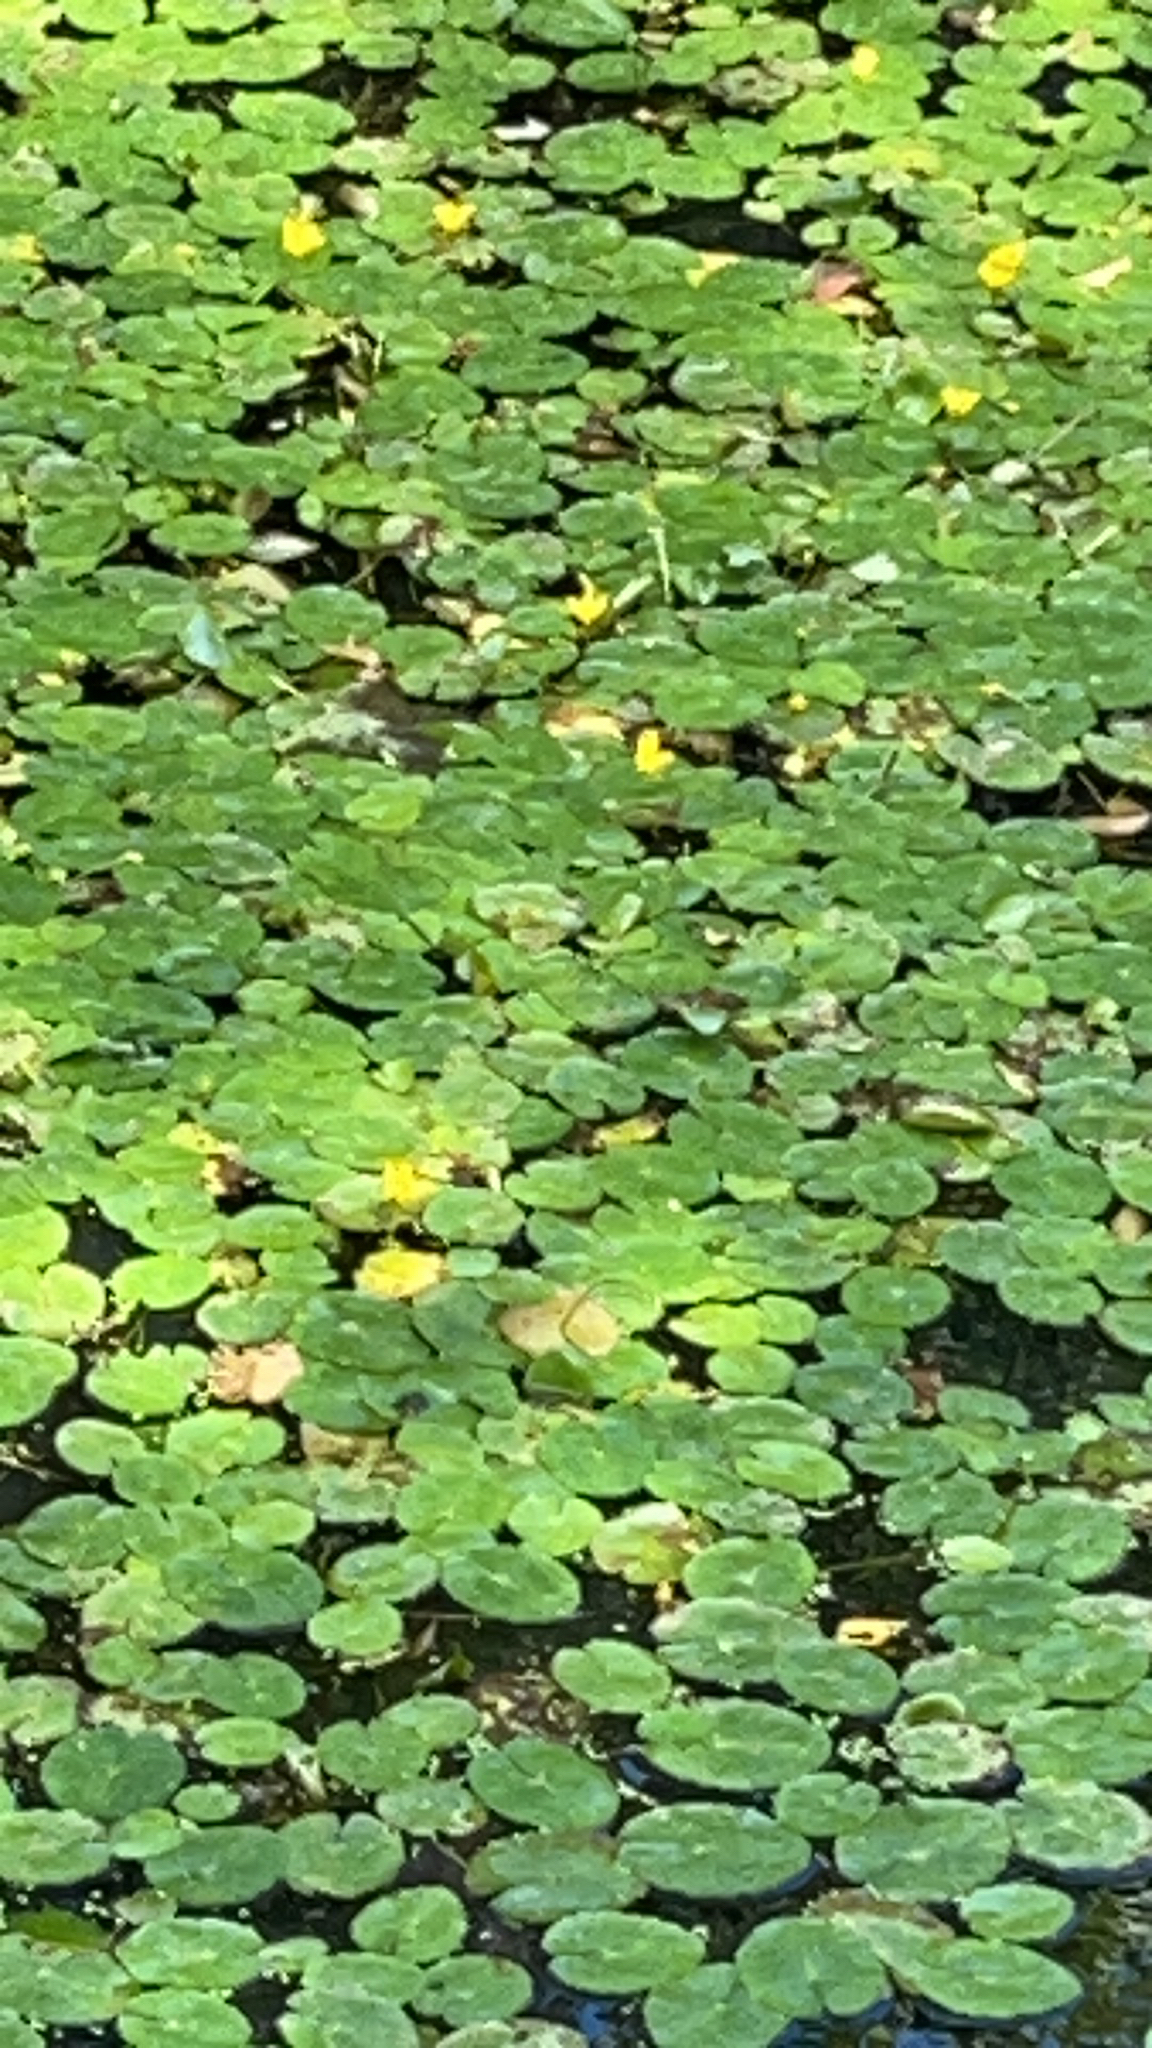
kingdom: Plantae
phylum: Tracheophyta
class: Magnoliopsida
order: Asterales
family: Menyanthaceae
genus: Nymphoides
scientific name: Nymphoides peltata
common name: Fringed water-lily
